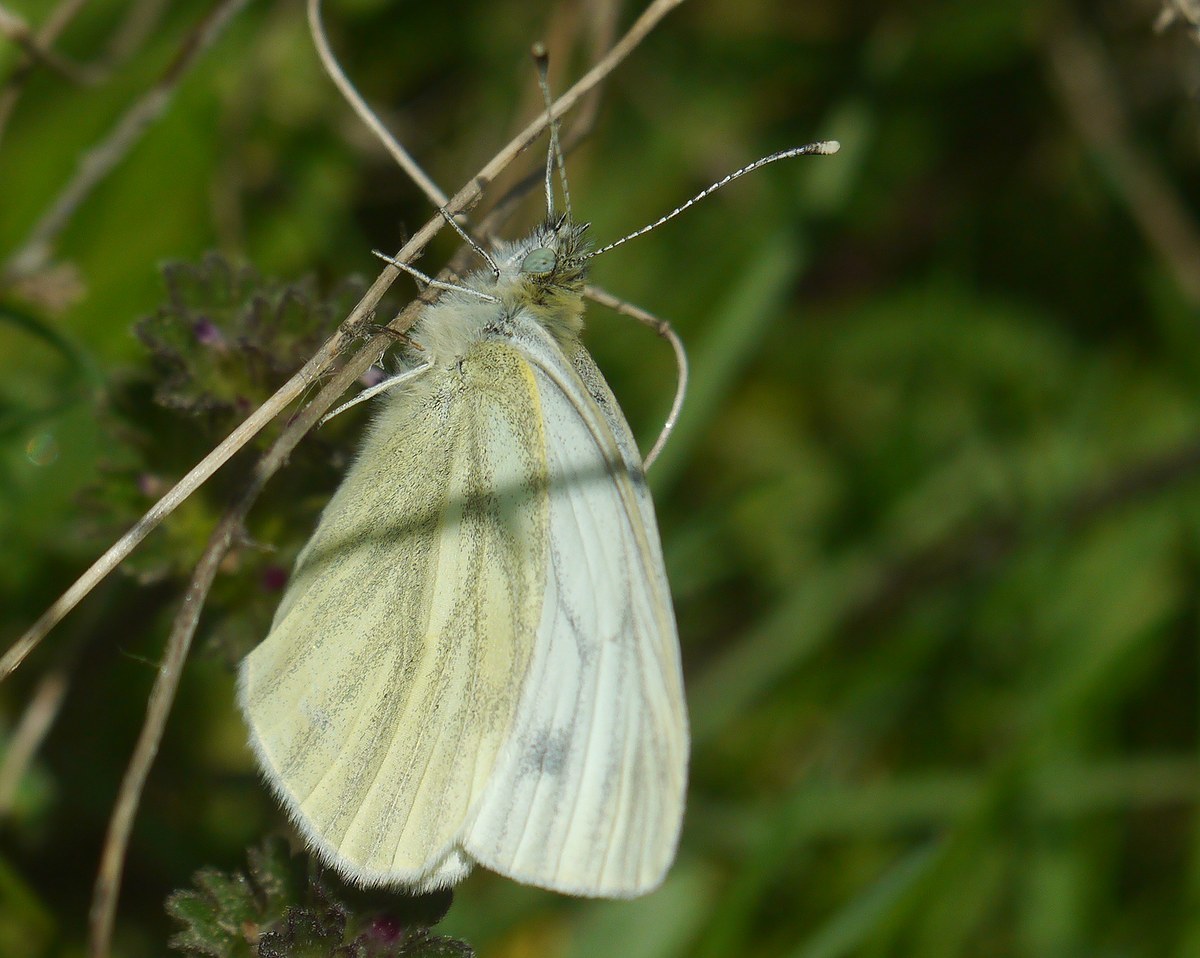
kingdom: Animalia
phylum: Arthropoda
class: Insecta
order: Lepidoptera
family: Pieridae
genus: Pieris
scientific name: Pieris napi
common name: Green-veined white
